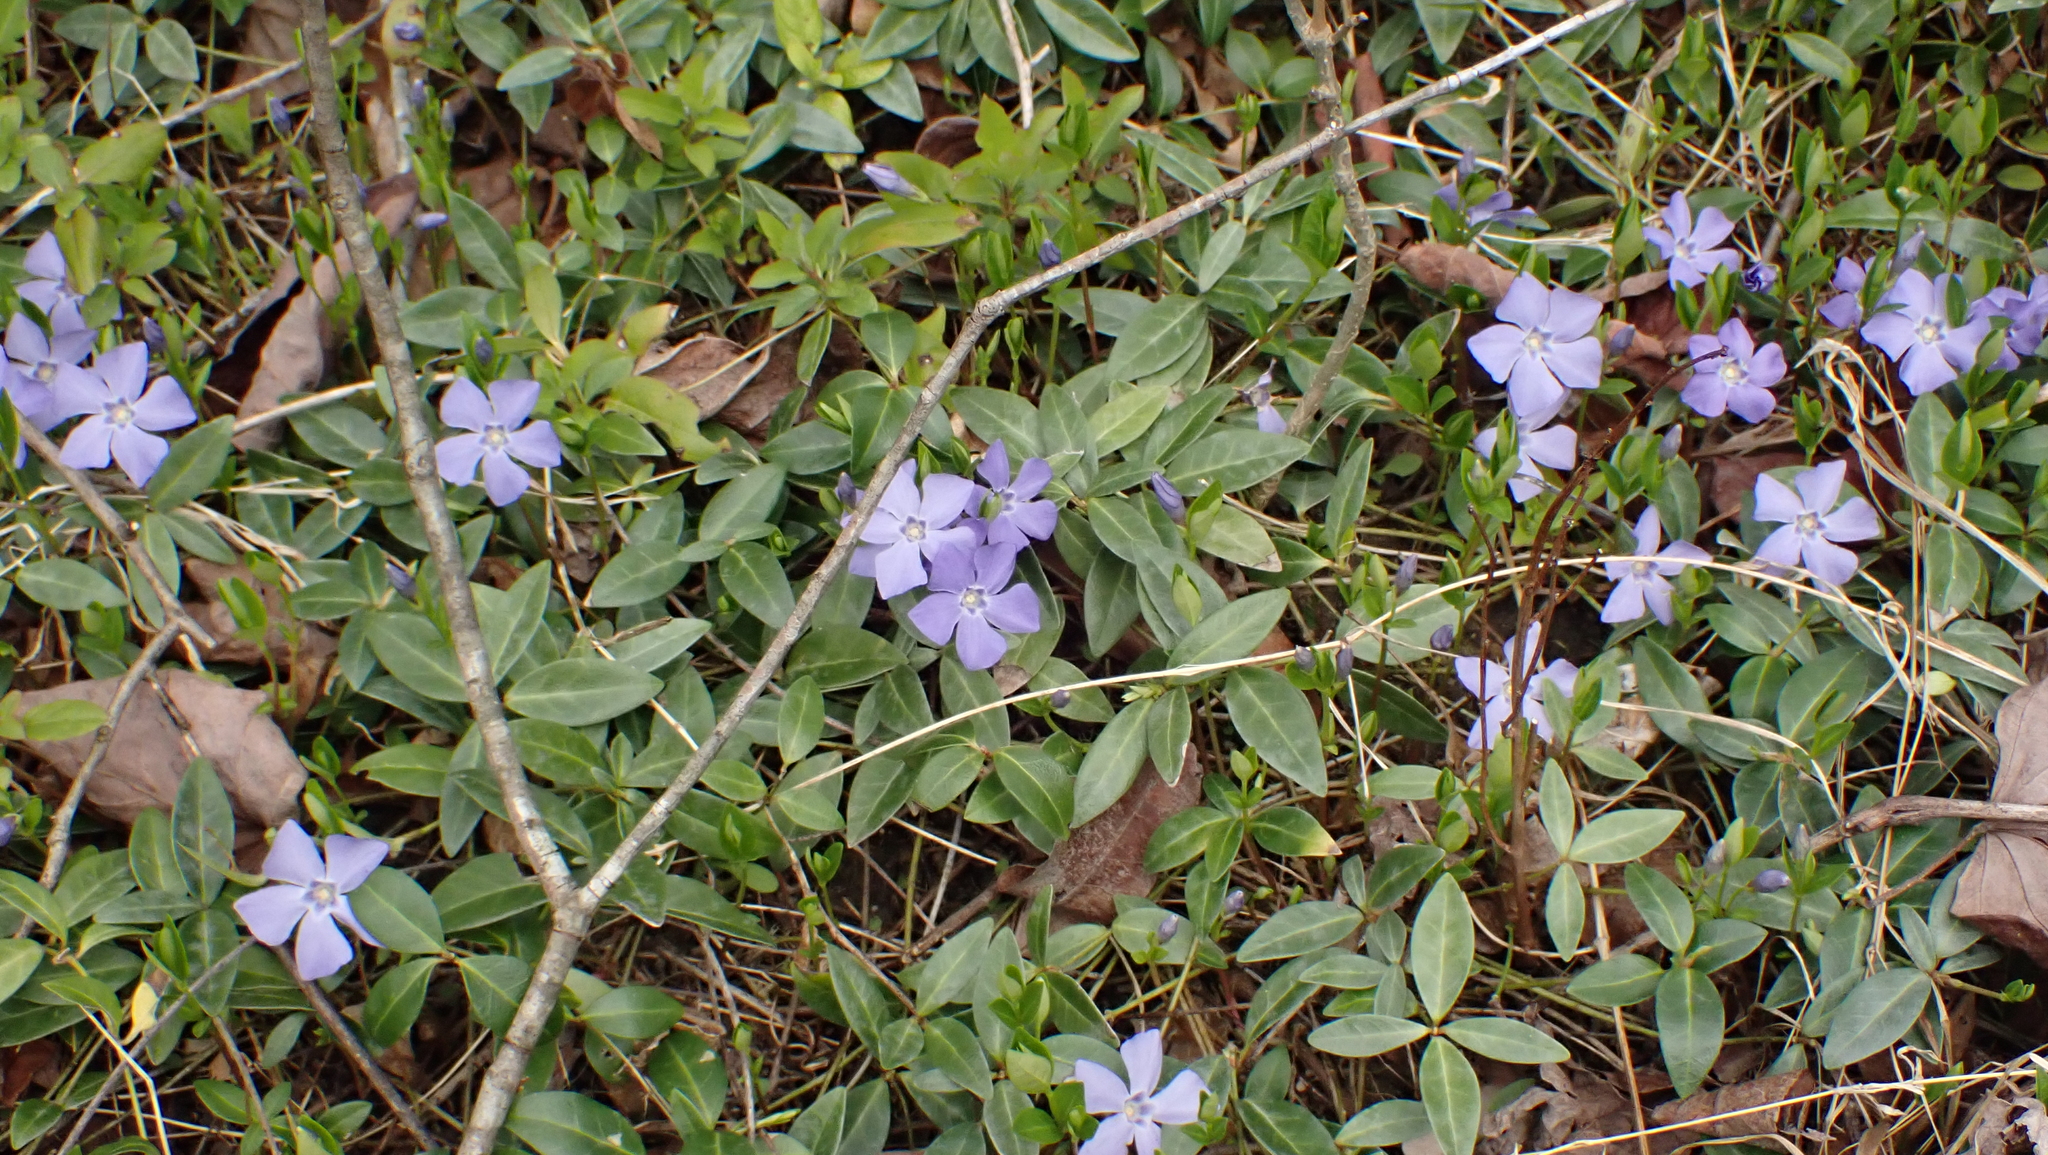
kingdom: Plantae
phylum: Tracheophyta
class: Magnoliopsida
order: Gentianales
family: Apocynaceae
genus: Vinca
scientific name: Vinca minor
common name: Lesser periwinkle
